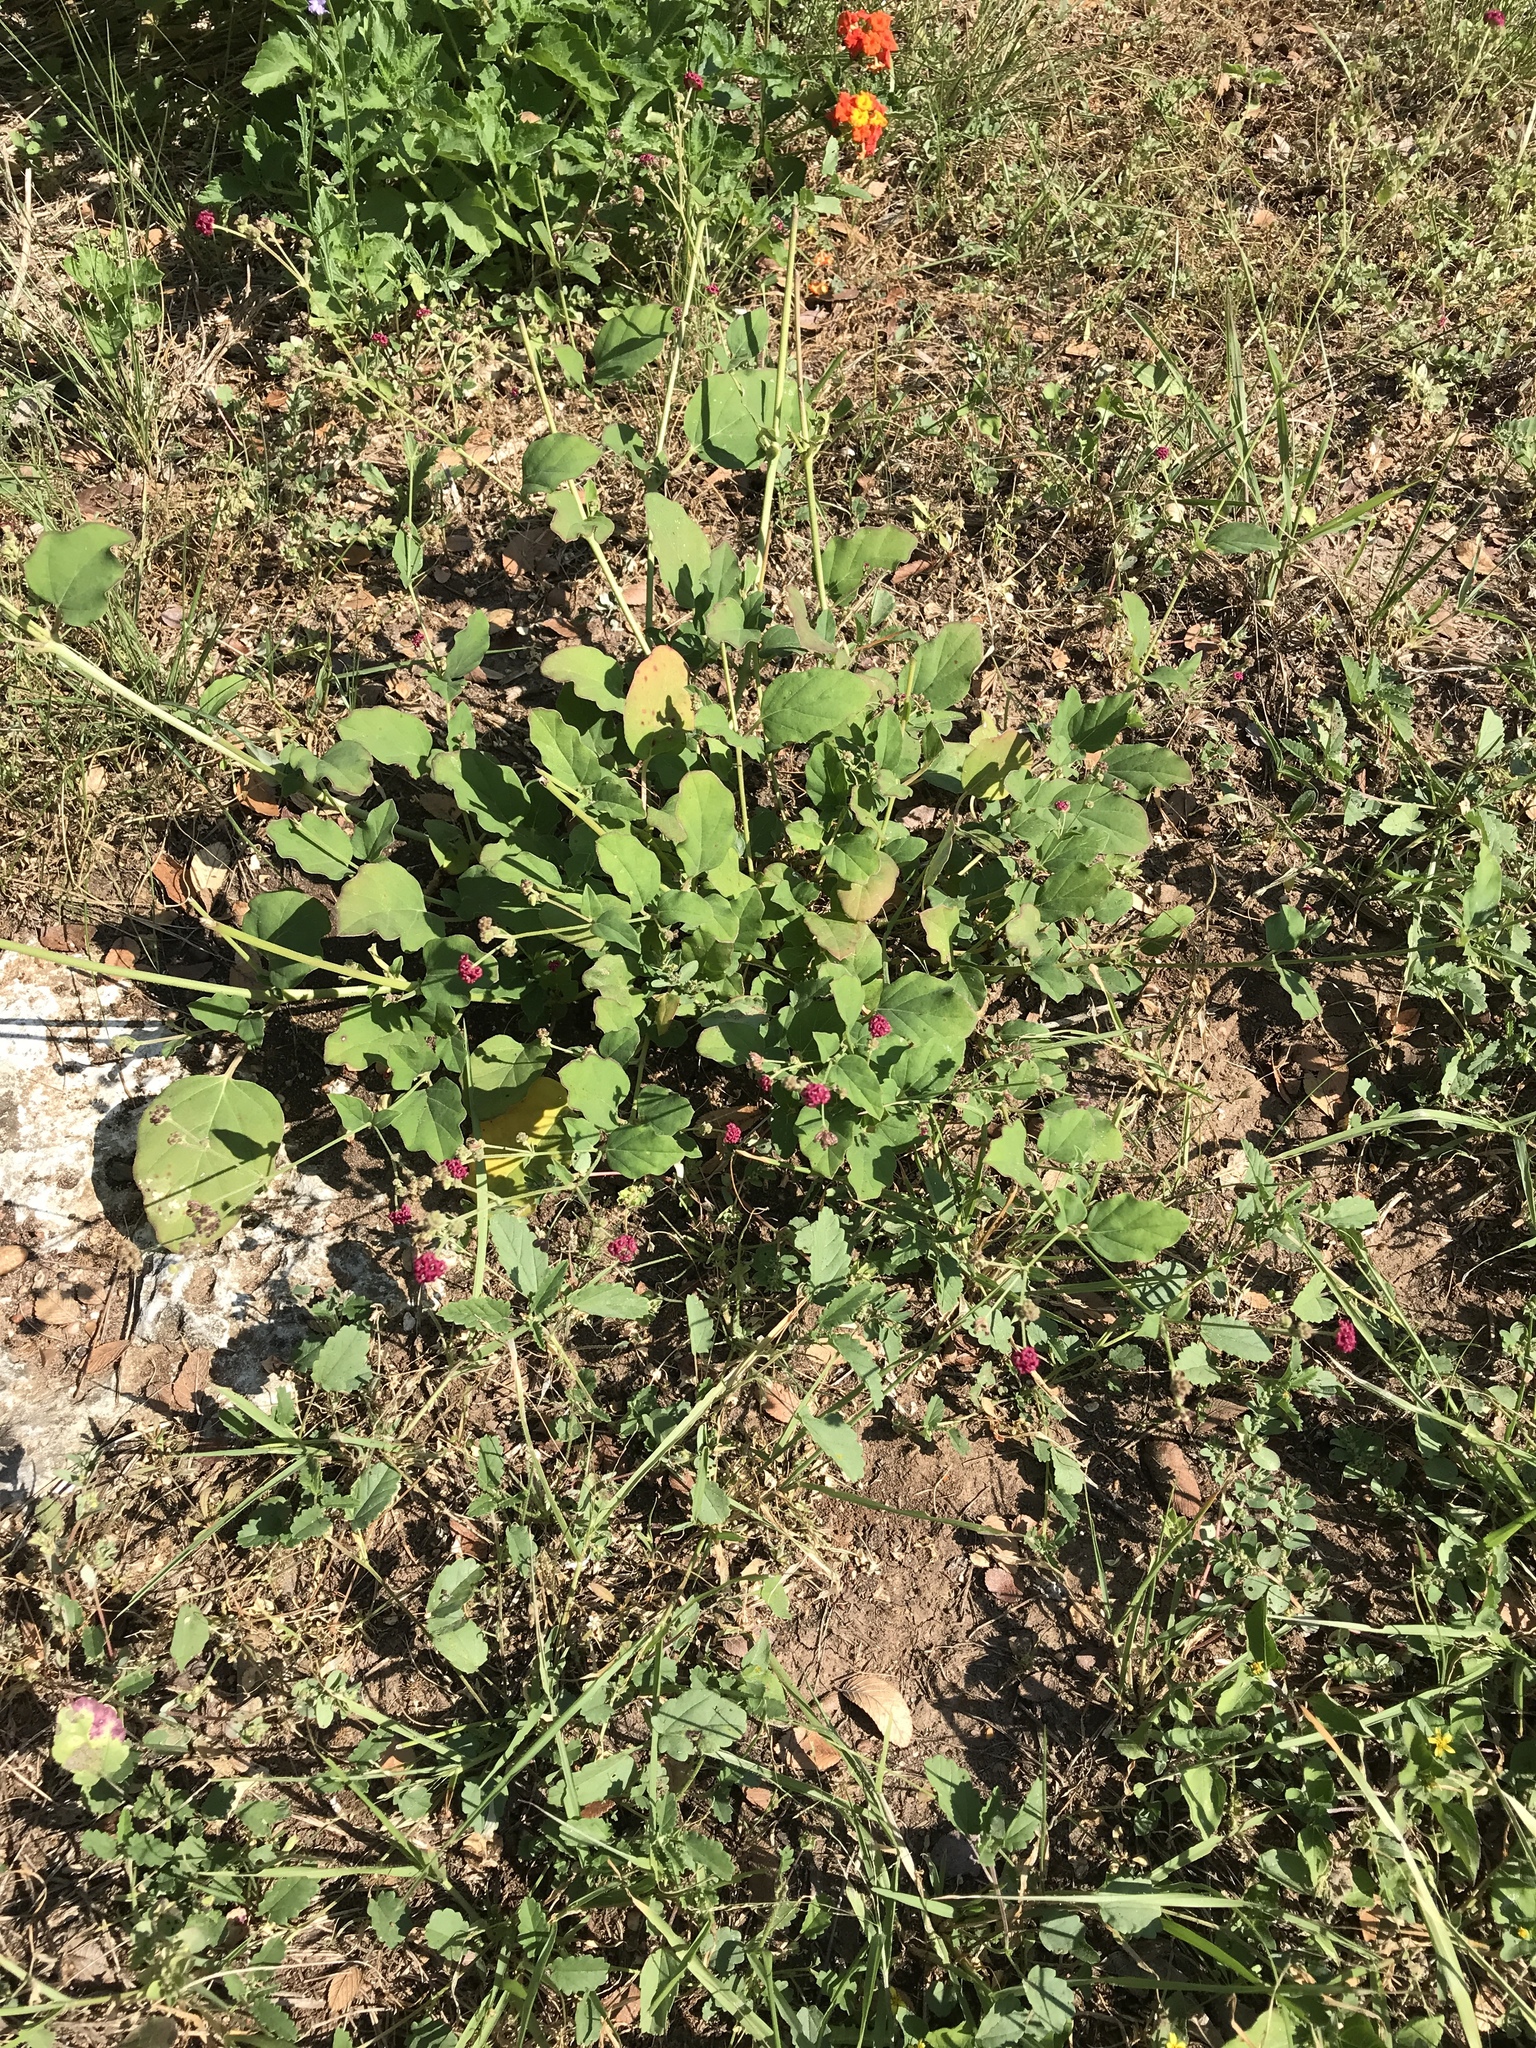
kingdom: Plantae
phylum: Tracheophyta
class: Magnoliopsida
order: Caryophyllales
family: Nyctaginaceae
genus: Boerhavia
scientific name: Boerhavia coccinea
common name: Scarlet spiderling
